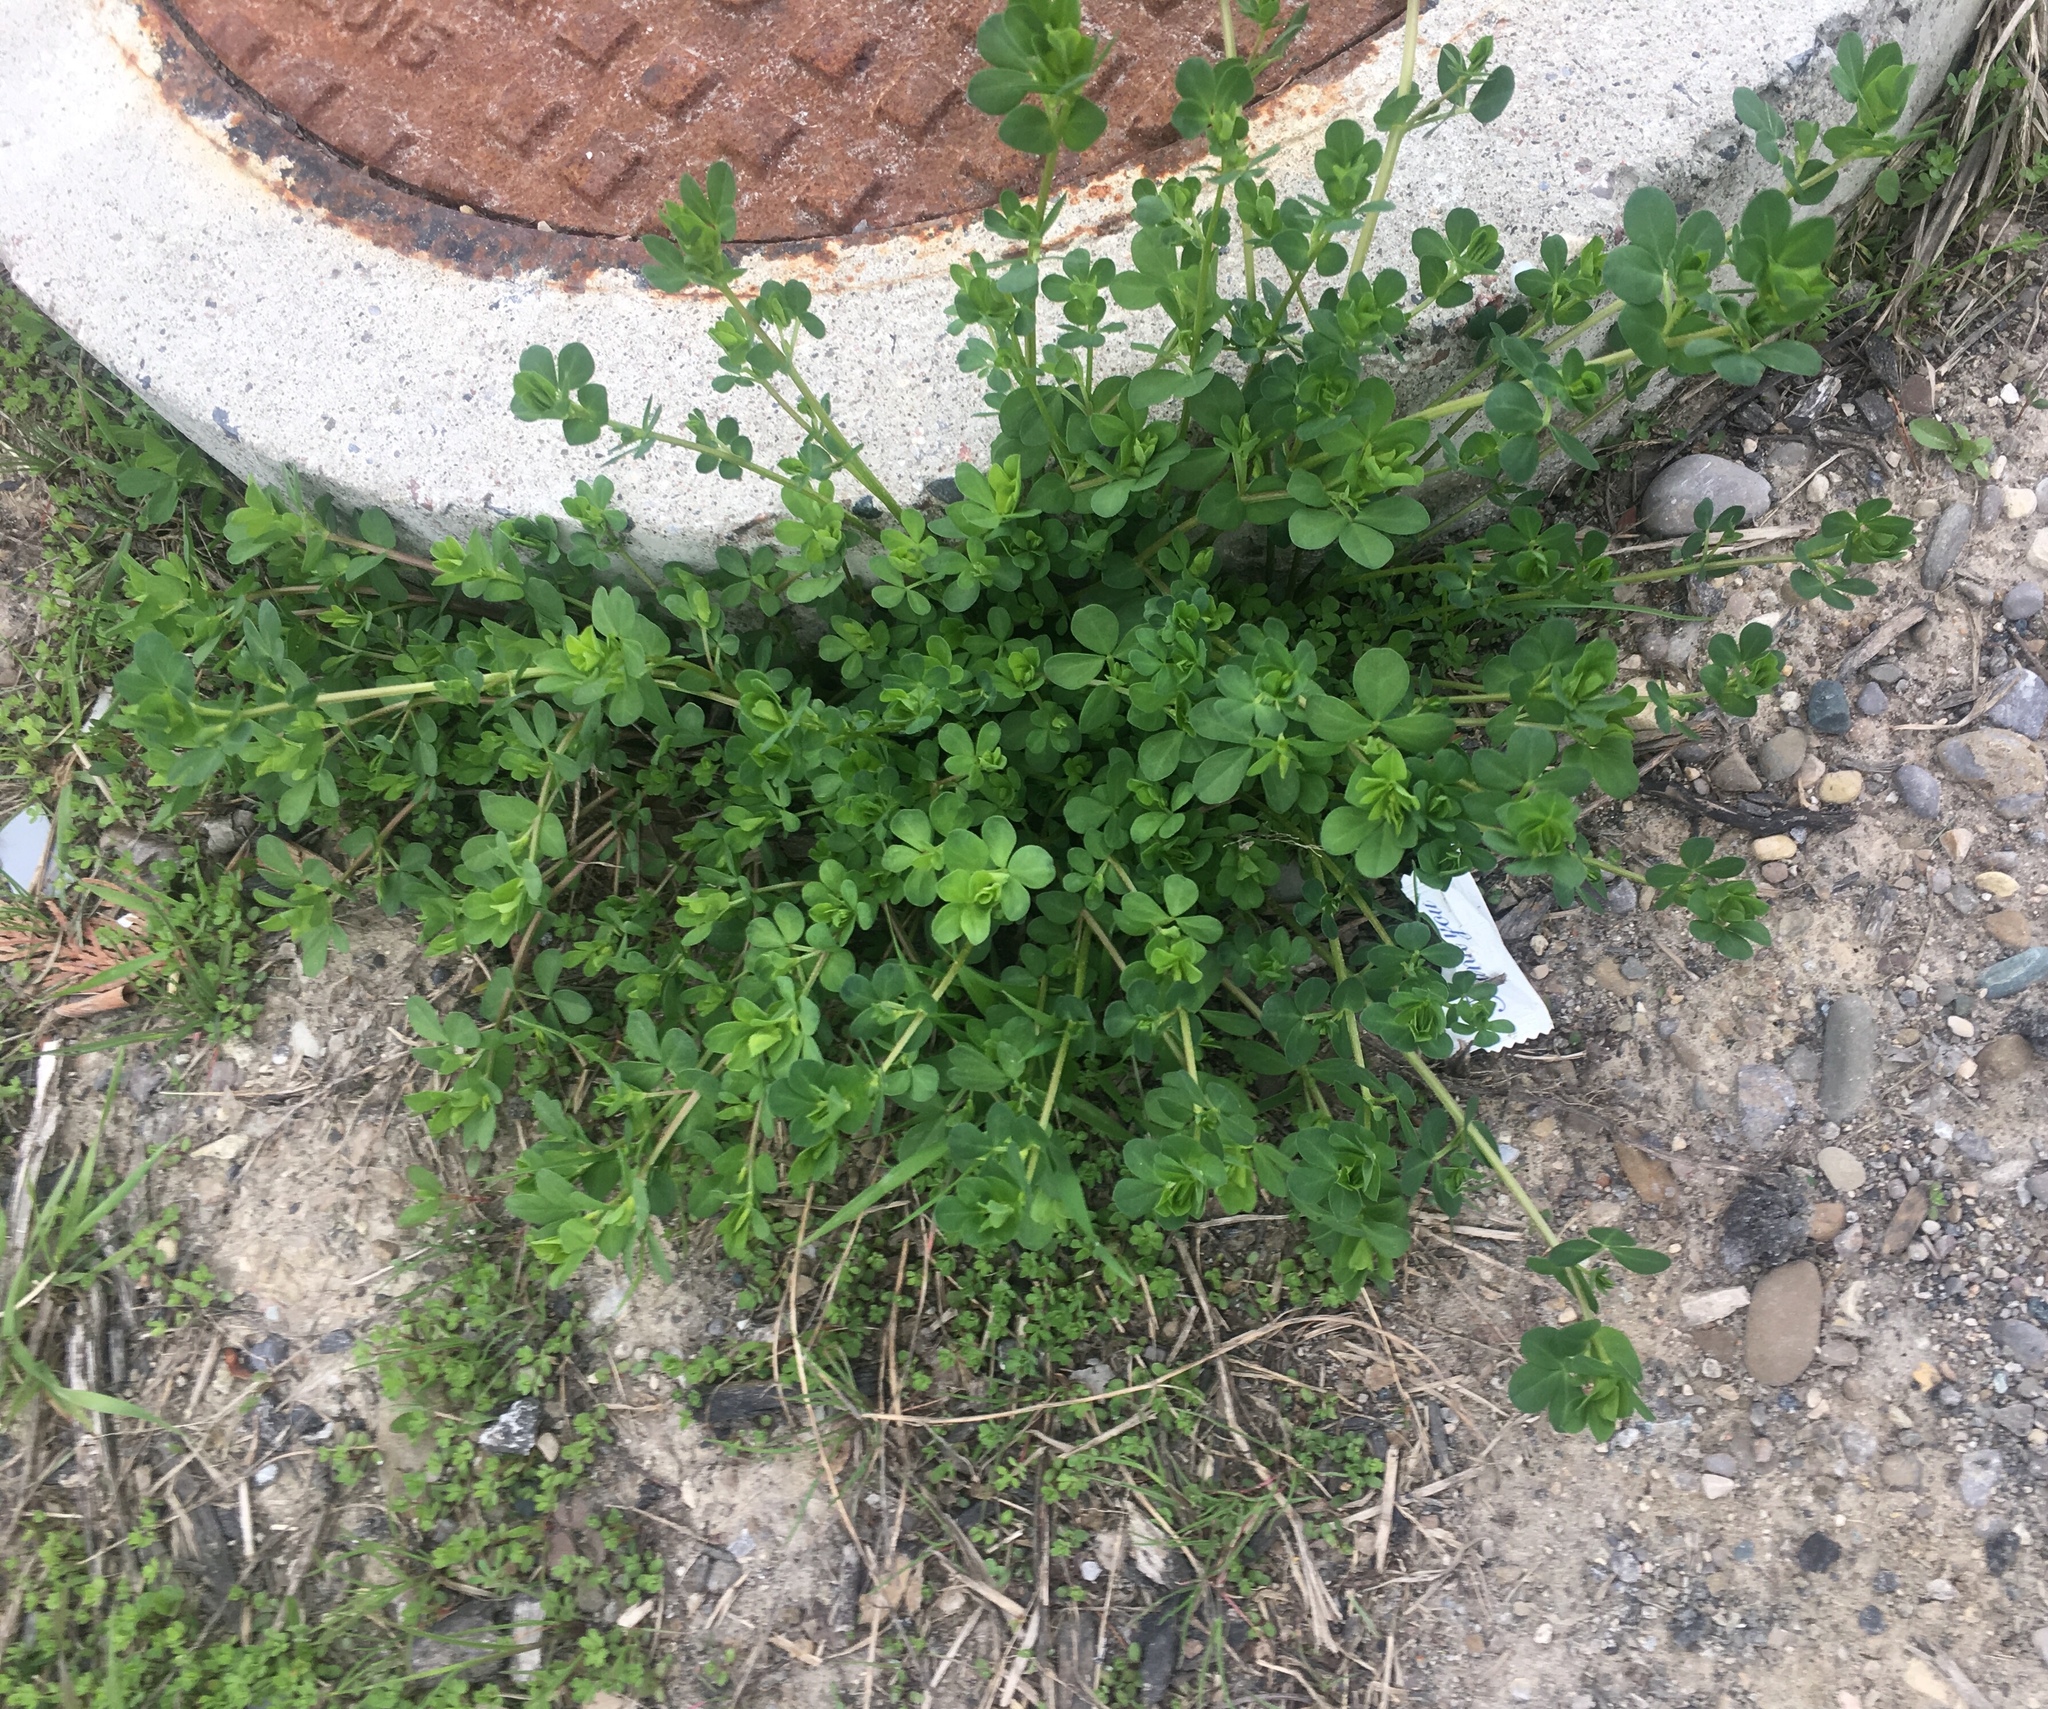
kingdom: Plantae
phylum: Tracheophyta
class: Magnoliopsida
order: Fabales
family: Fabaceae
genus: Lotus
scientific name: Lotus corniculatus
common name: Common bird's-foot-trefoil
